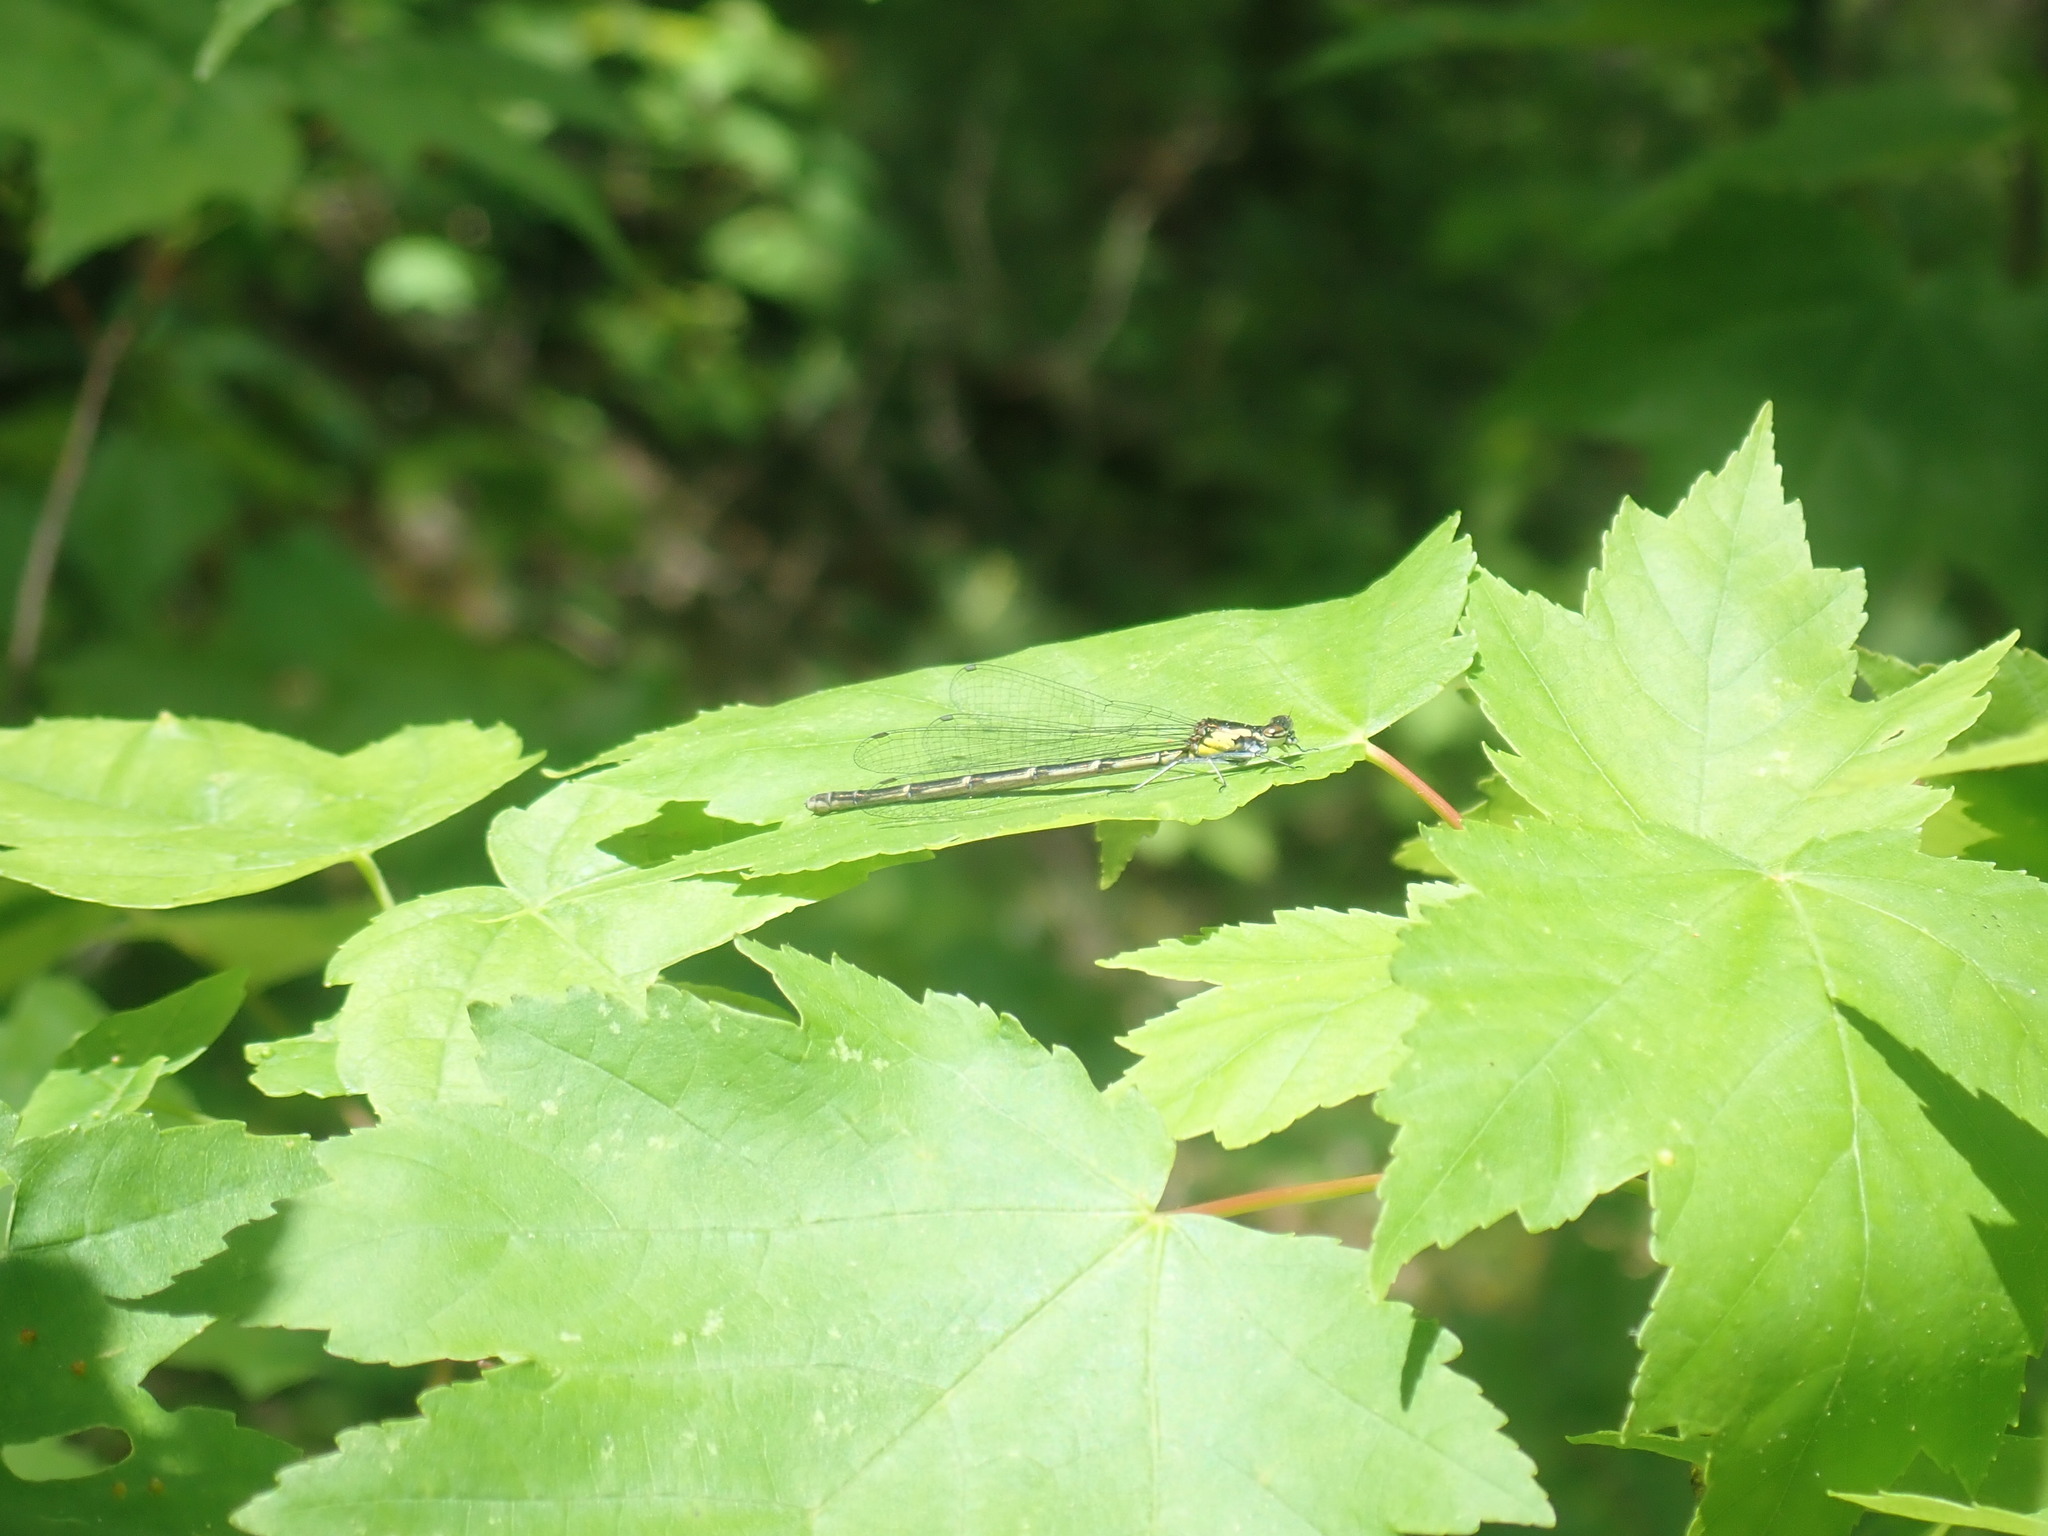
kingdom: Animalia
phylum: Arthropoda
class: Insecta
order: Odonata
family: Coenagrionidae
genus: Chromagrion
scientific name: Chromagrion conditum
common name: Aurora damsel
